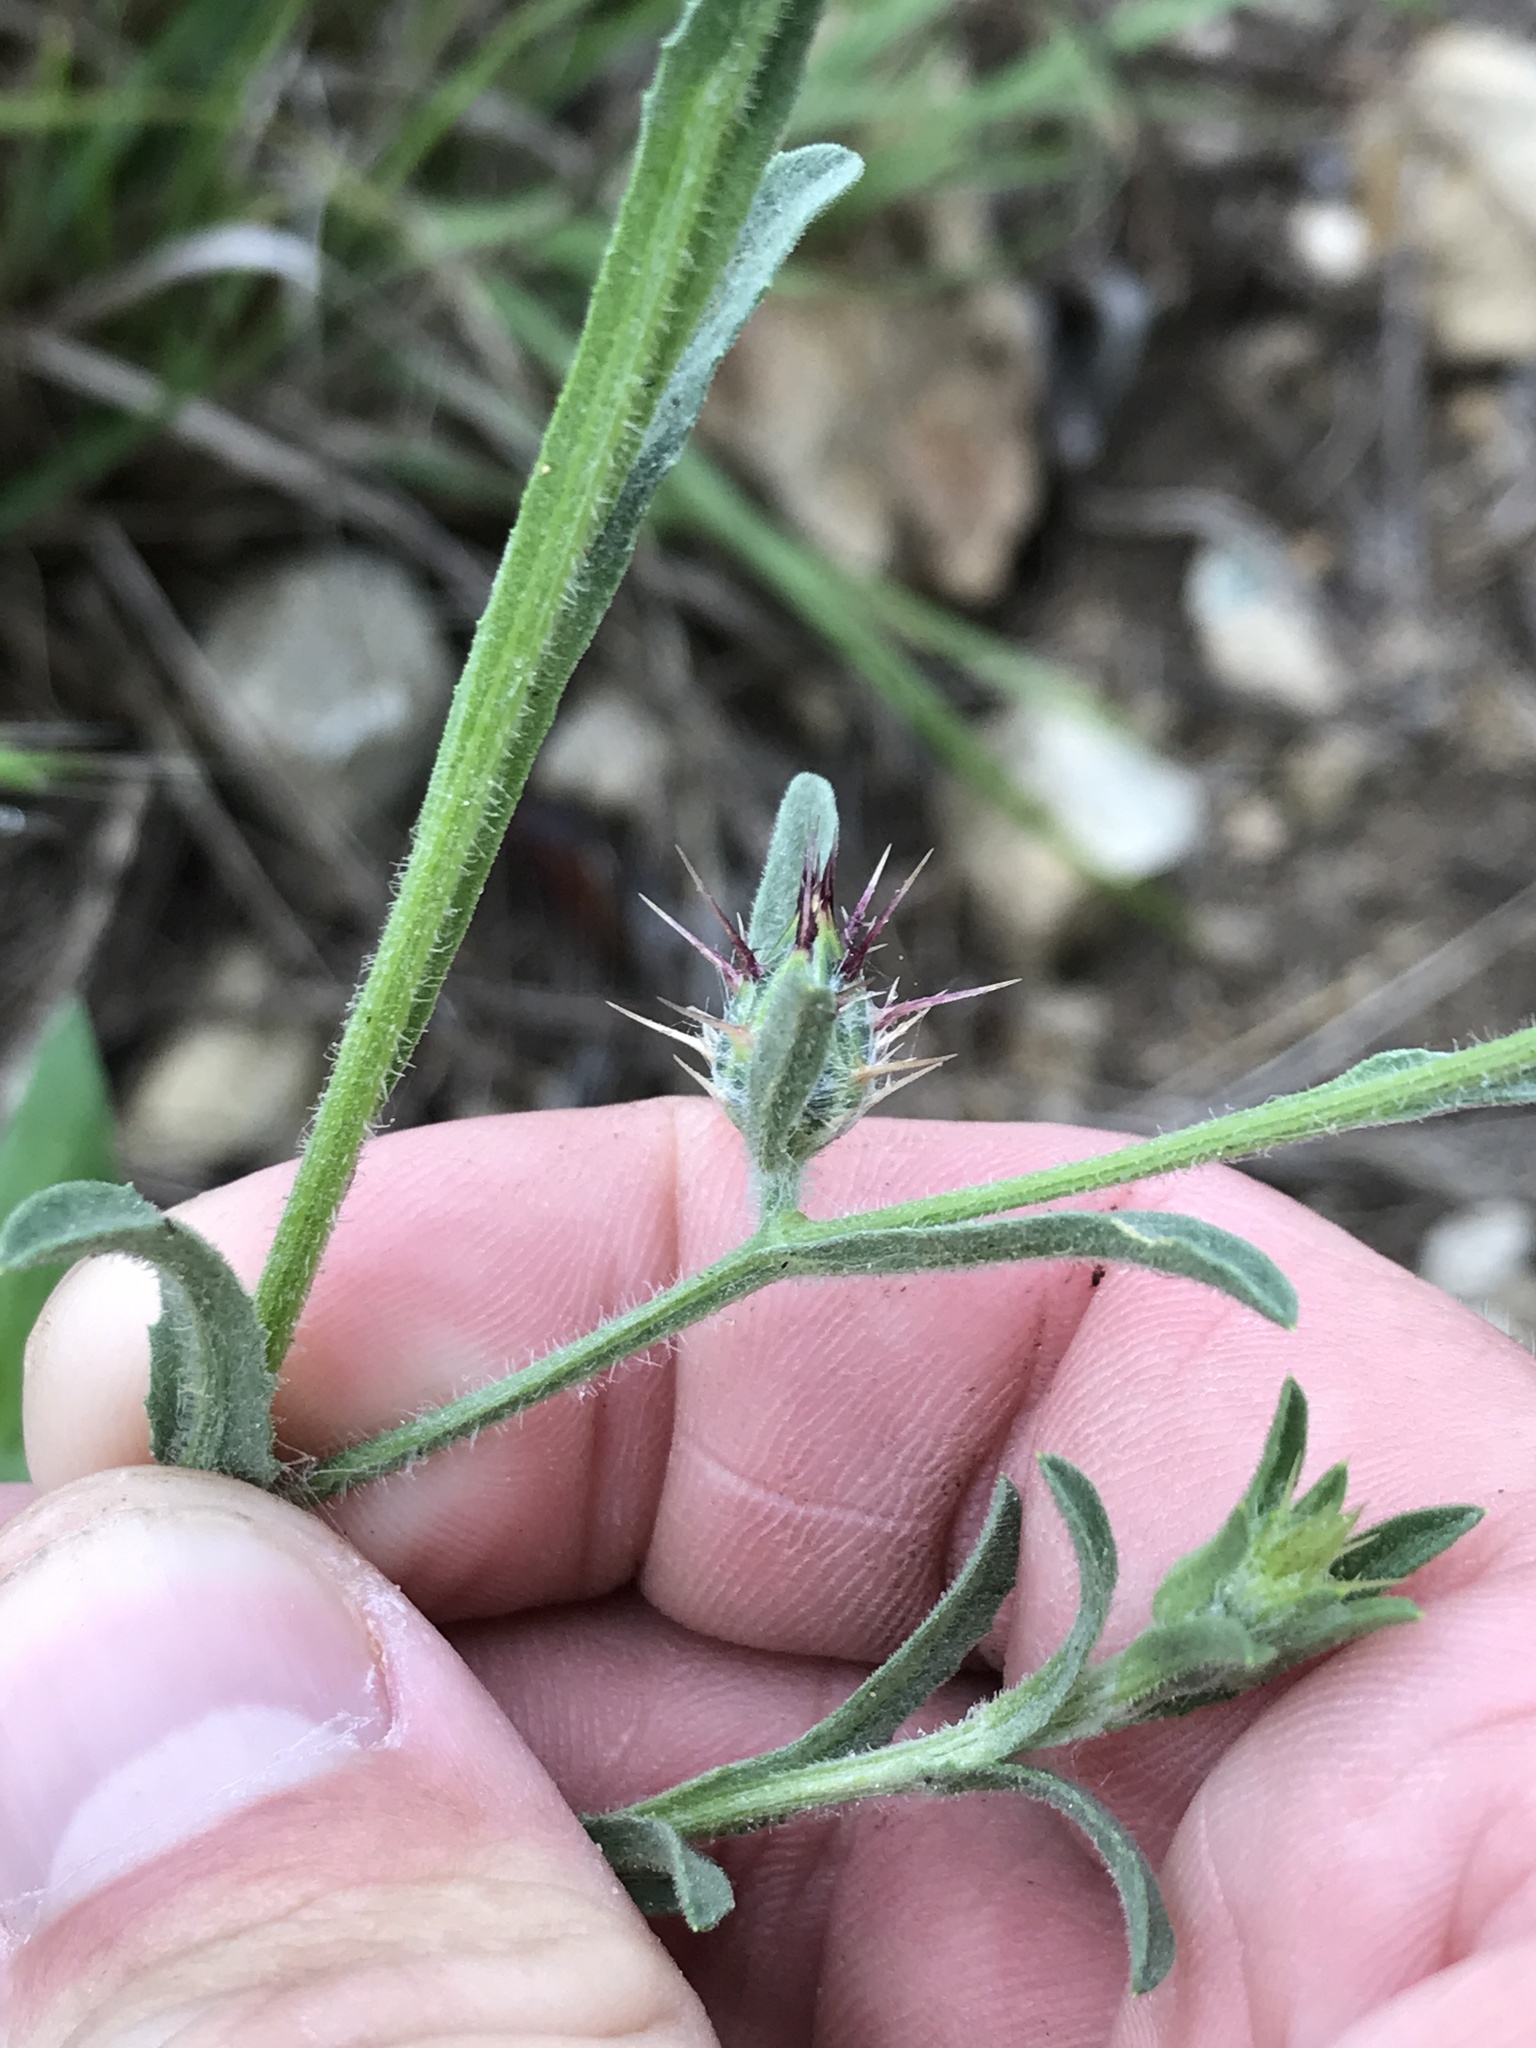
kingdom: Plantae
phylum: Tracheophyta
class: Magnoliopsida
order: Asterales
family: Asteraceae
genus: Centaurea
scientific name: Centaurea melitensis
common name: Maltese star-thistle
